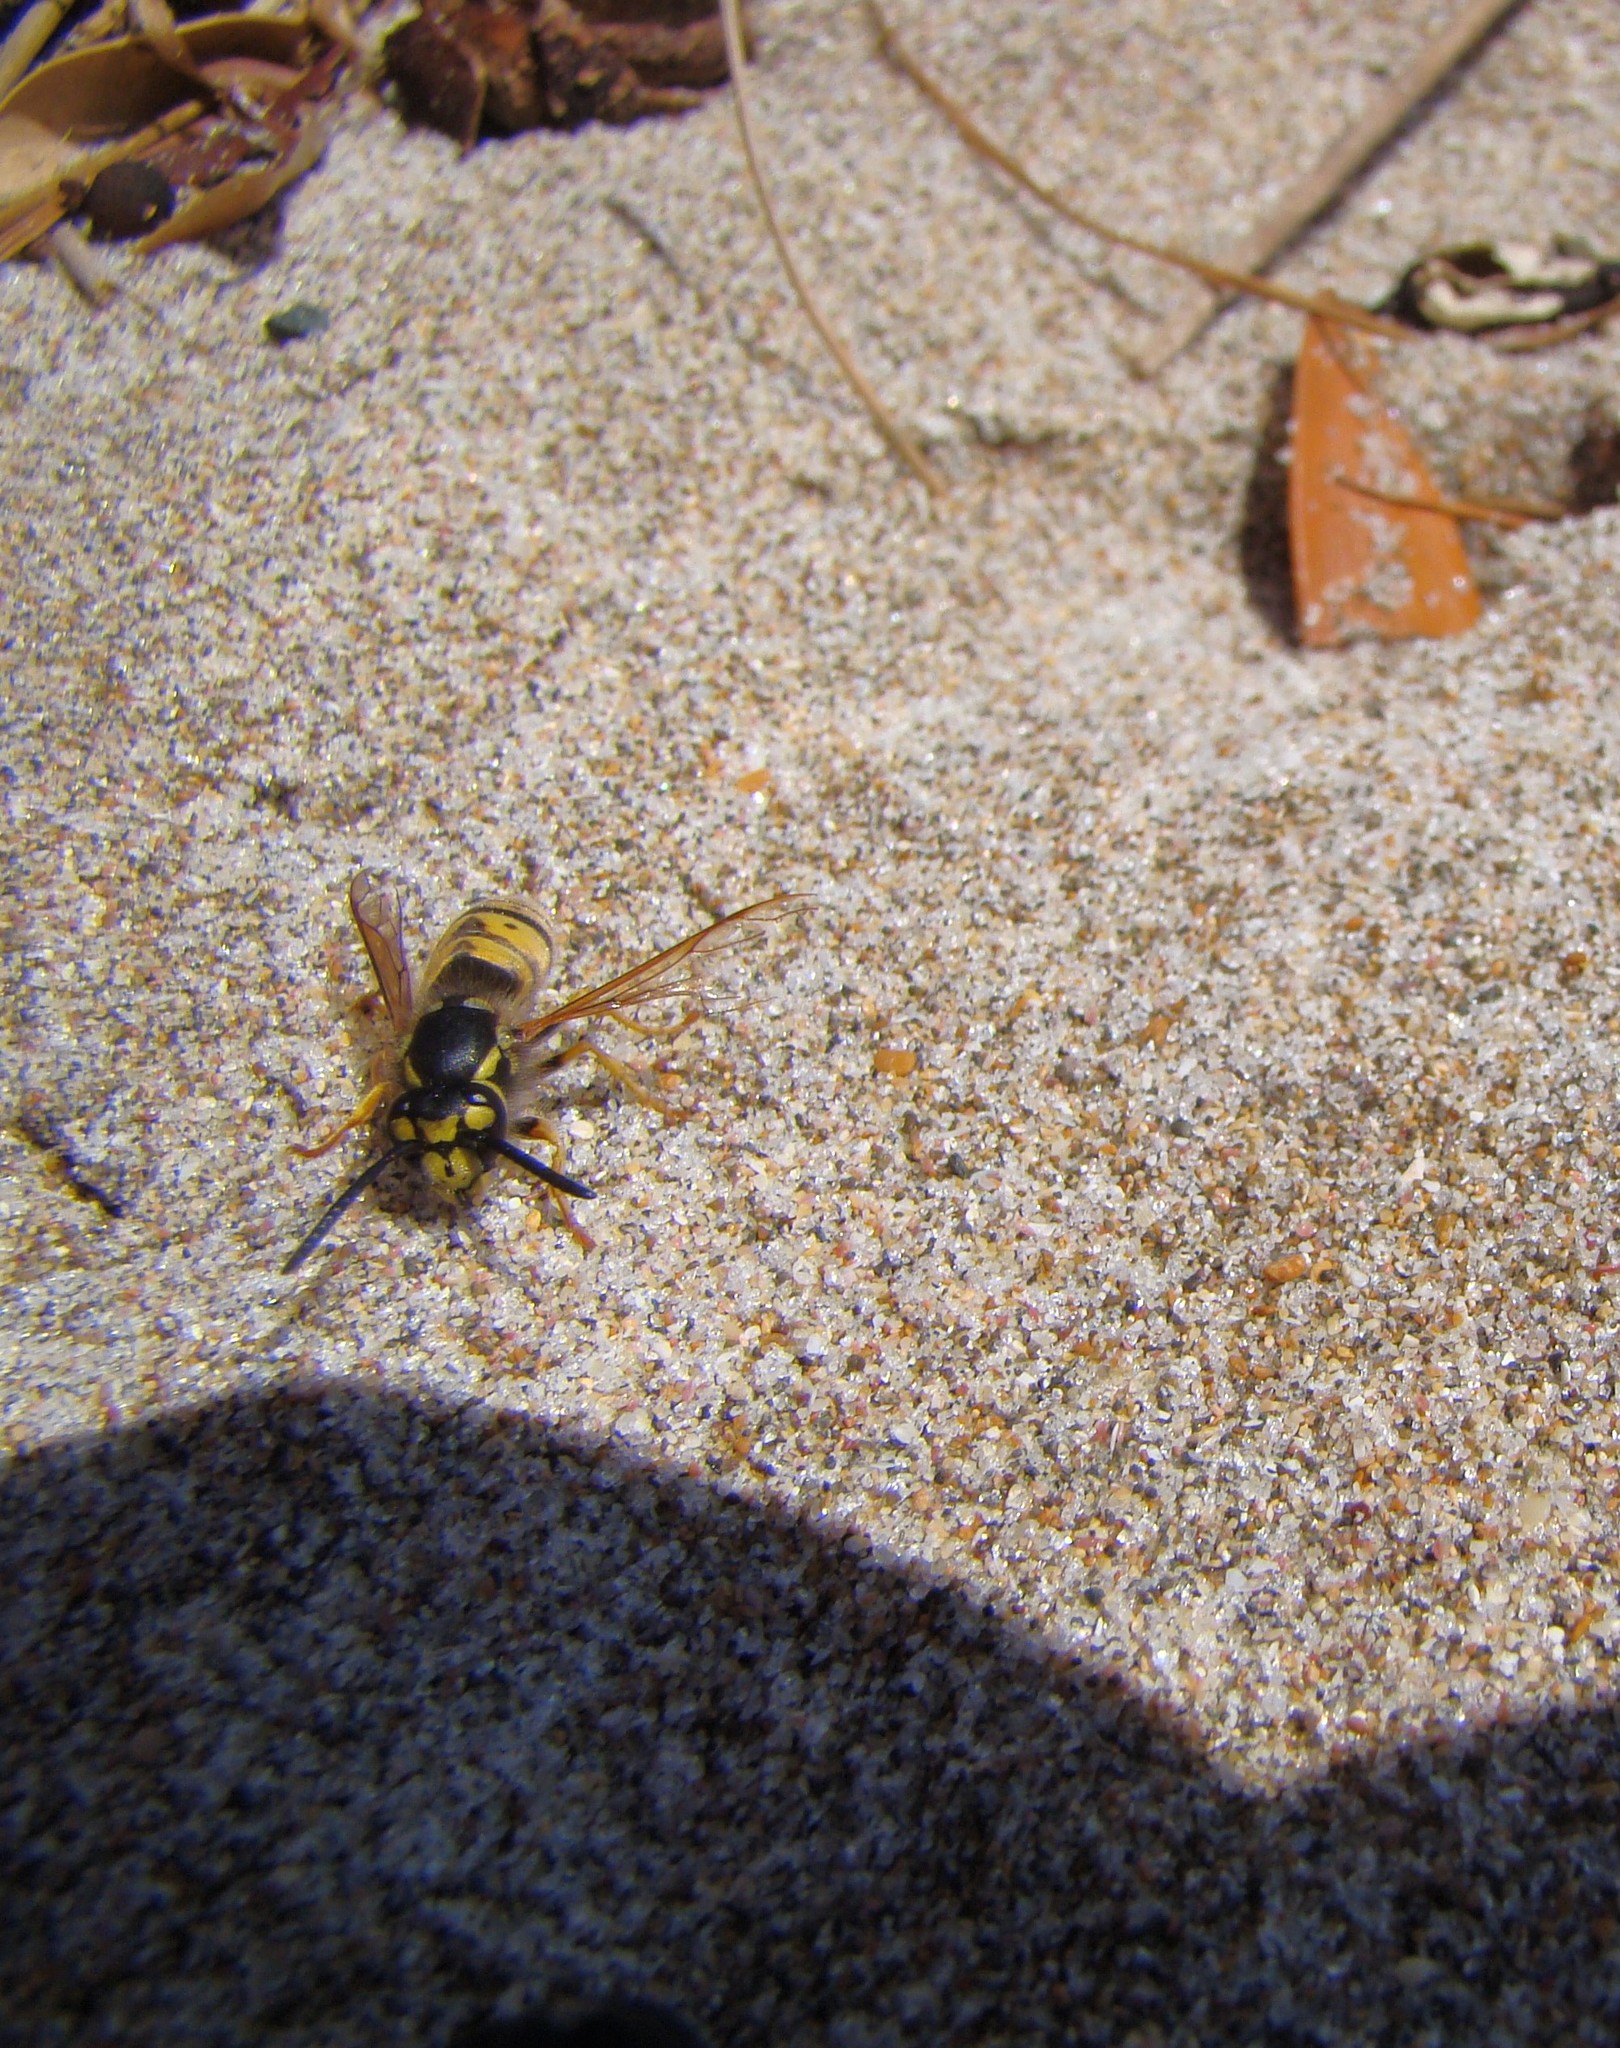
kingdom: Animalia
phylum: Arthropoda
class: Insecta
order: Hymenoptera
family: Vespidae
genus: Vespula
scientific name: Vespula germanica
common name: German wasp
